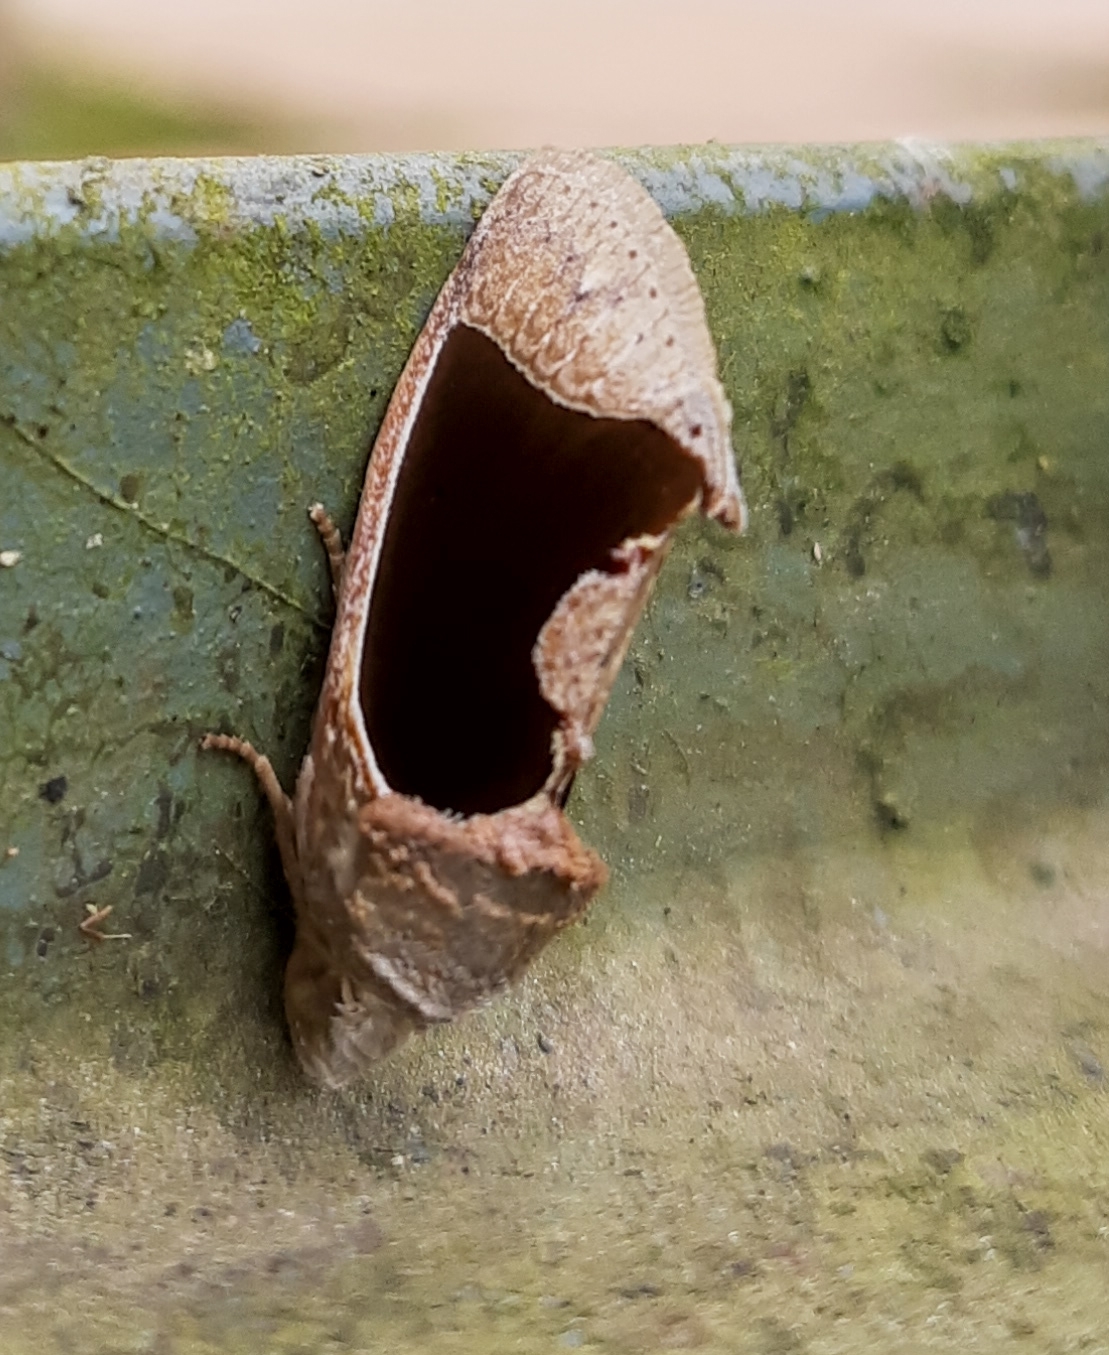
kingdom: Animalia
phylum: Arthropoda
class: Insecta
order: Lepidoptera
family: Erebidae
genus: Gonodonta
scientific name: Gonodonta sinaldus
